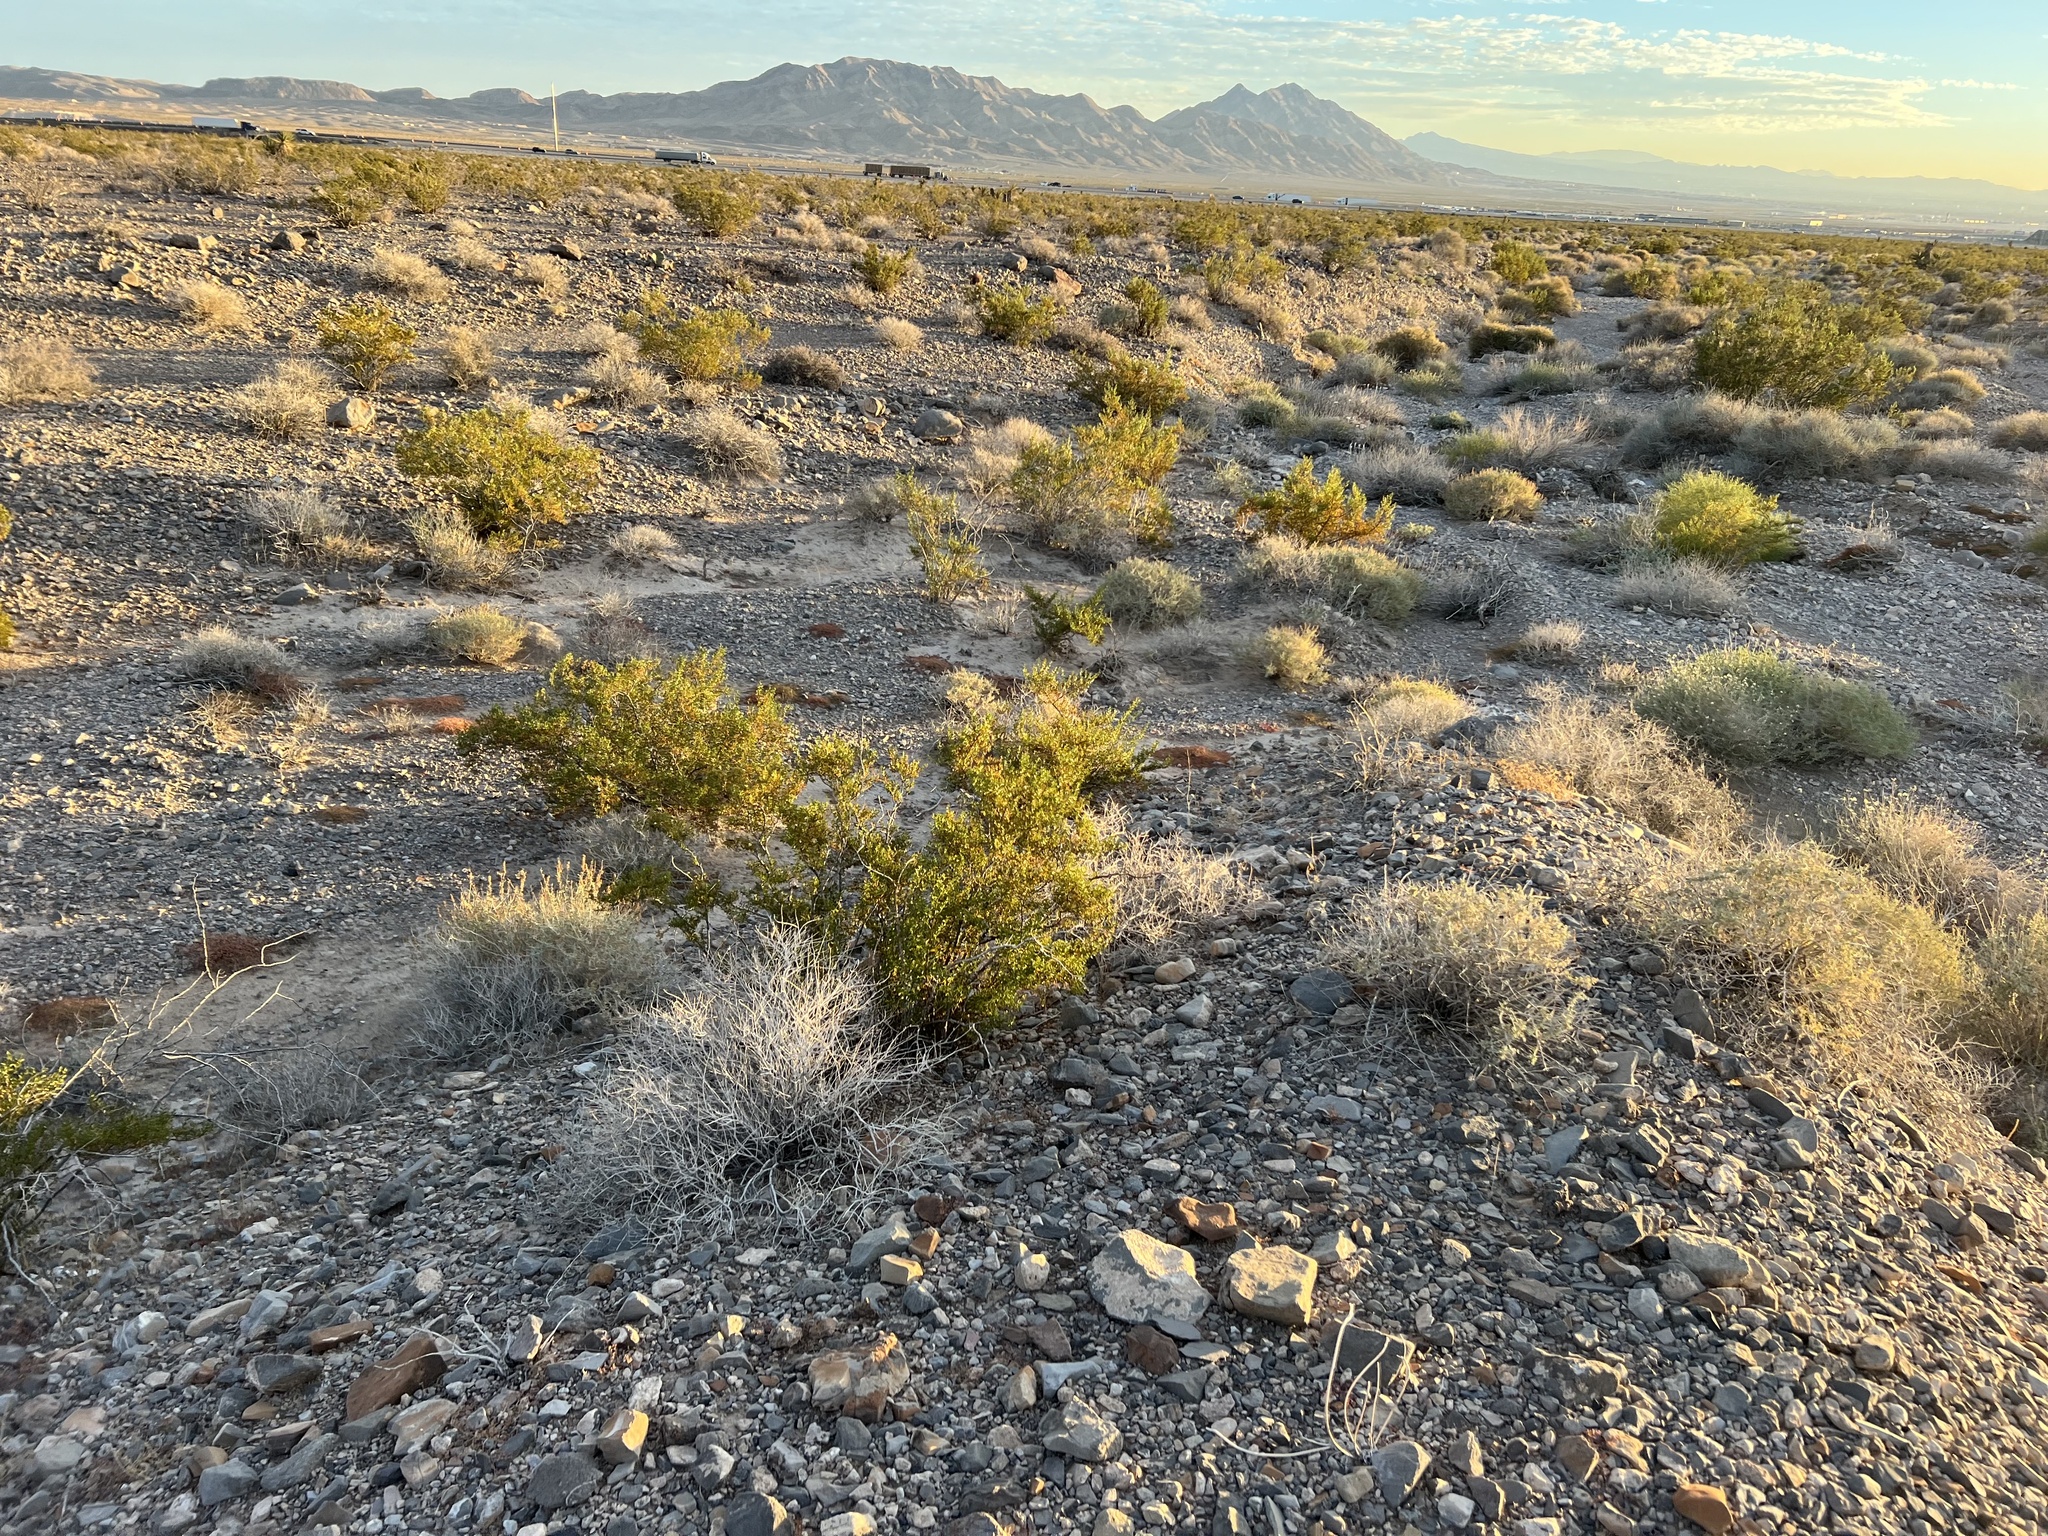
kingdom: Plantae
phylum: Tracheophyta
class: Magnoliopsida
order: Zygophyllales
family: Zygophyllaceae
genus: Larrea
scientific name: Larrea tridentata
